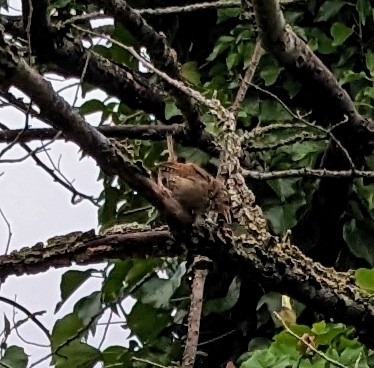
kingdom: Animalia
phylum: Chordata
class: Aves
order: Passeriformes
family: Troglodytidae
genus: Troglodytes
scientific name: Troglodytes troglodytes
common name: Eurasian wren
